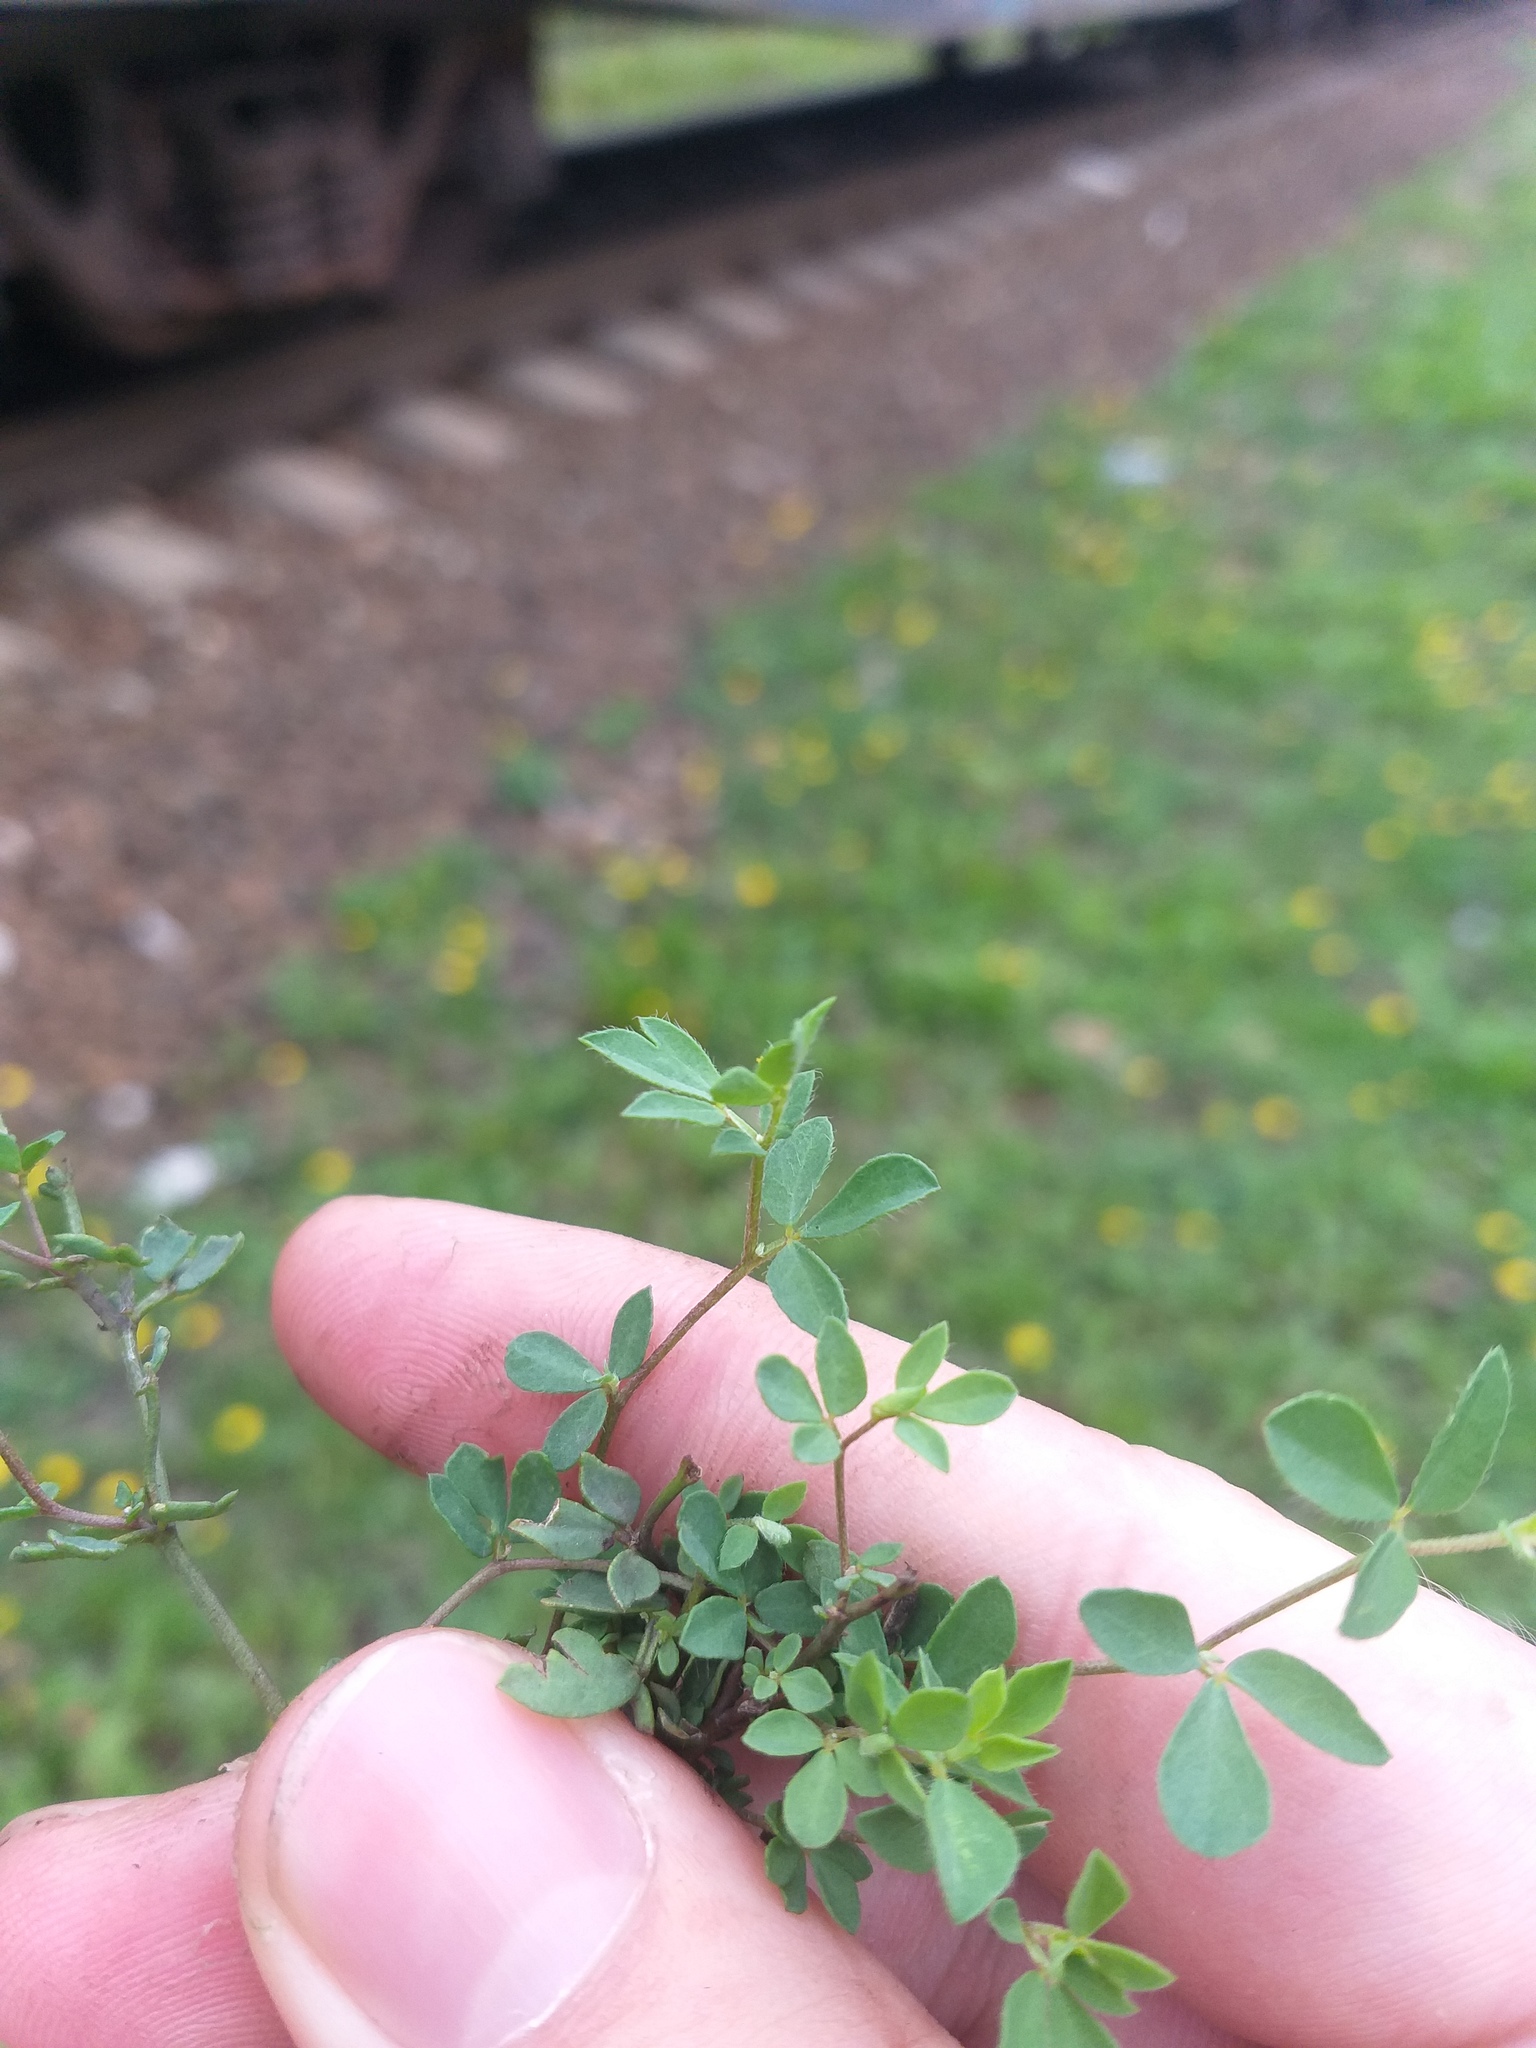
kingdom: Plantae
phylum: Tracheophyta
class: Magnoliopsida
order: Fabales
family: Fabaceae
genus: Lotus
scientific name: Lotus corniculatus
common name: Common bird's-foot-trefoil
